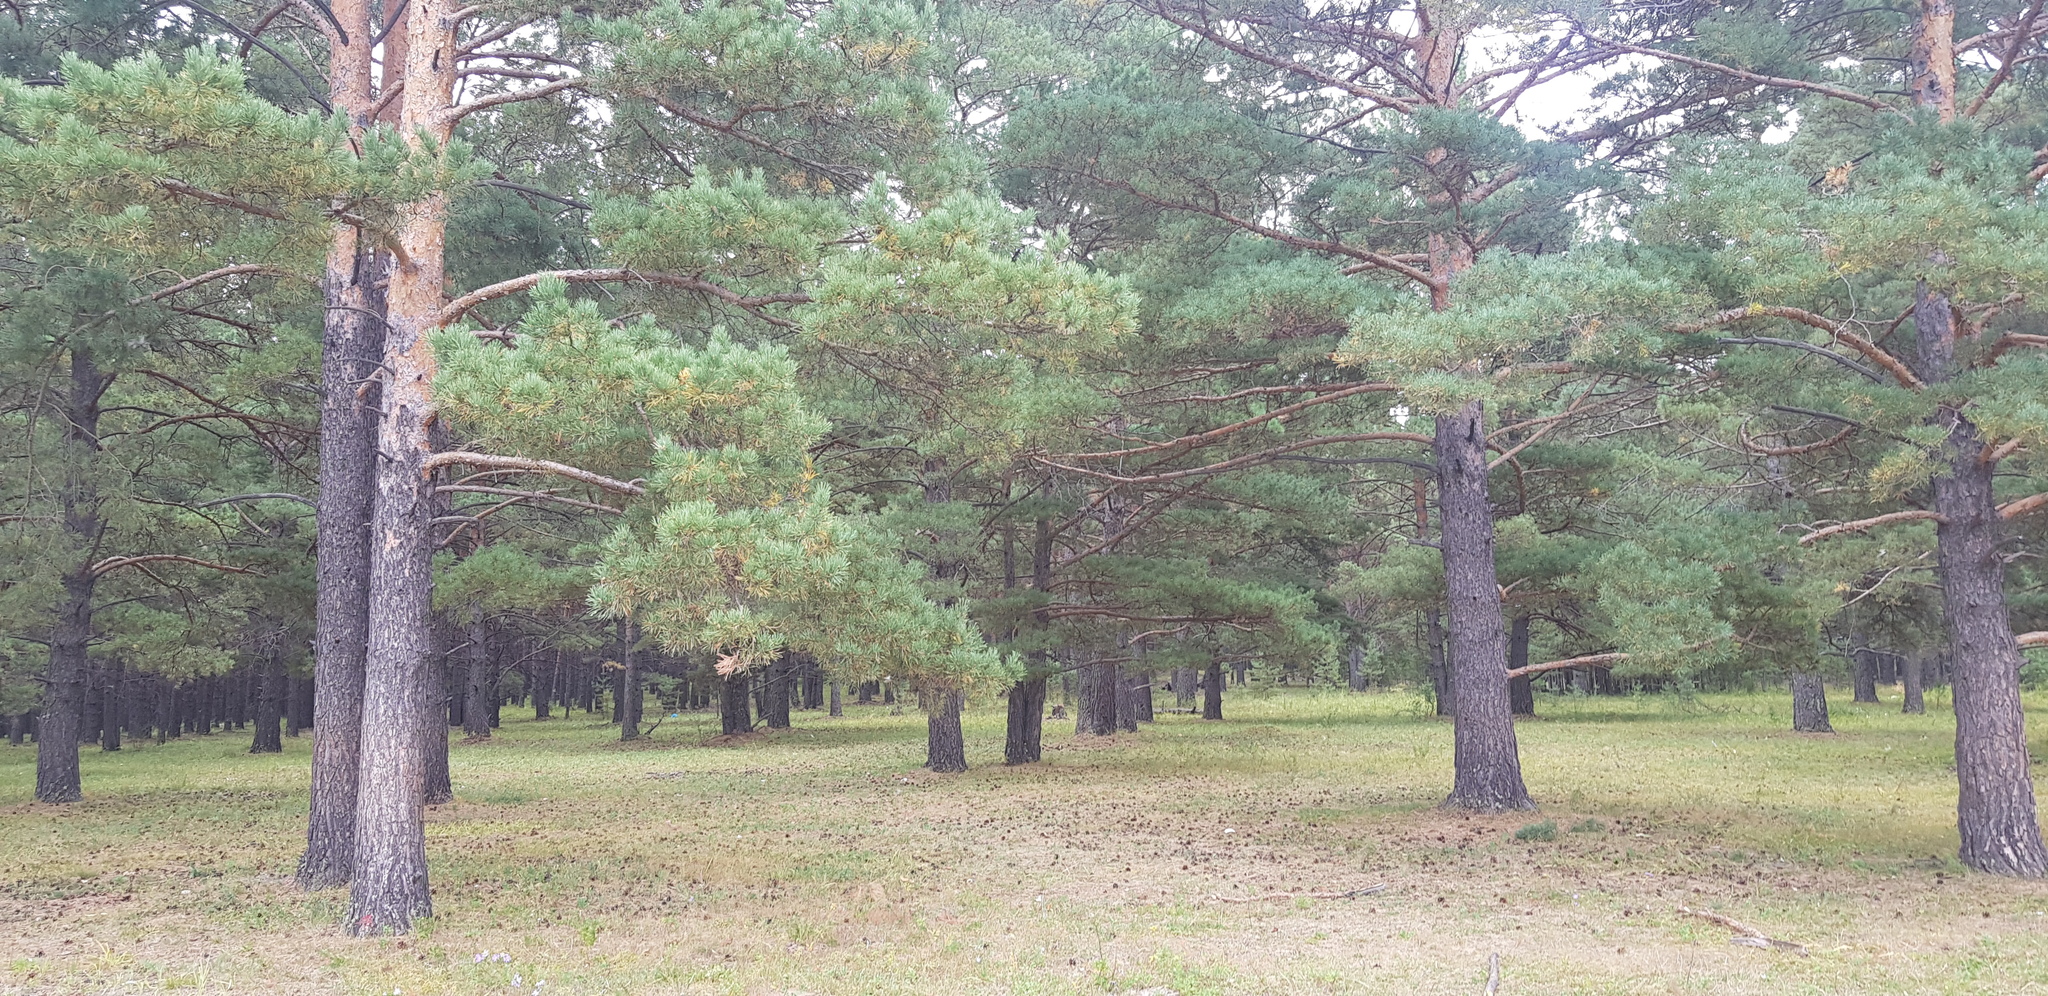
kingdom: Plantae
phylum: Tracheophyta
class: Pinopsida
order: Pinales
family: Pinaceae
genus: Pinus
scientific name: Pinus sylvestris
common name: Scots pine
